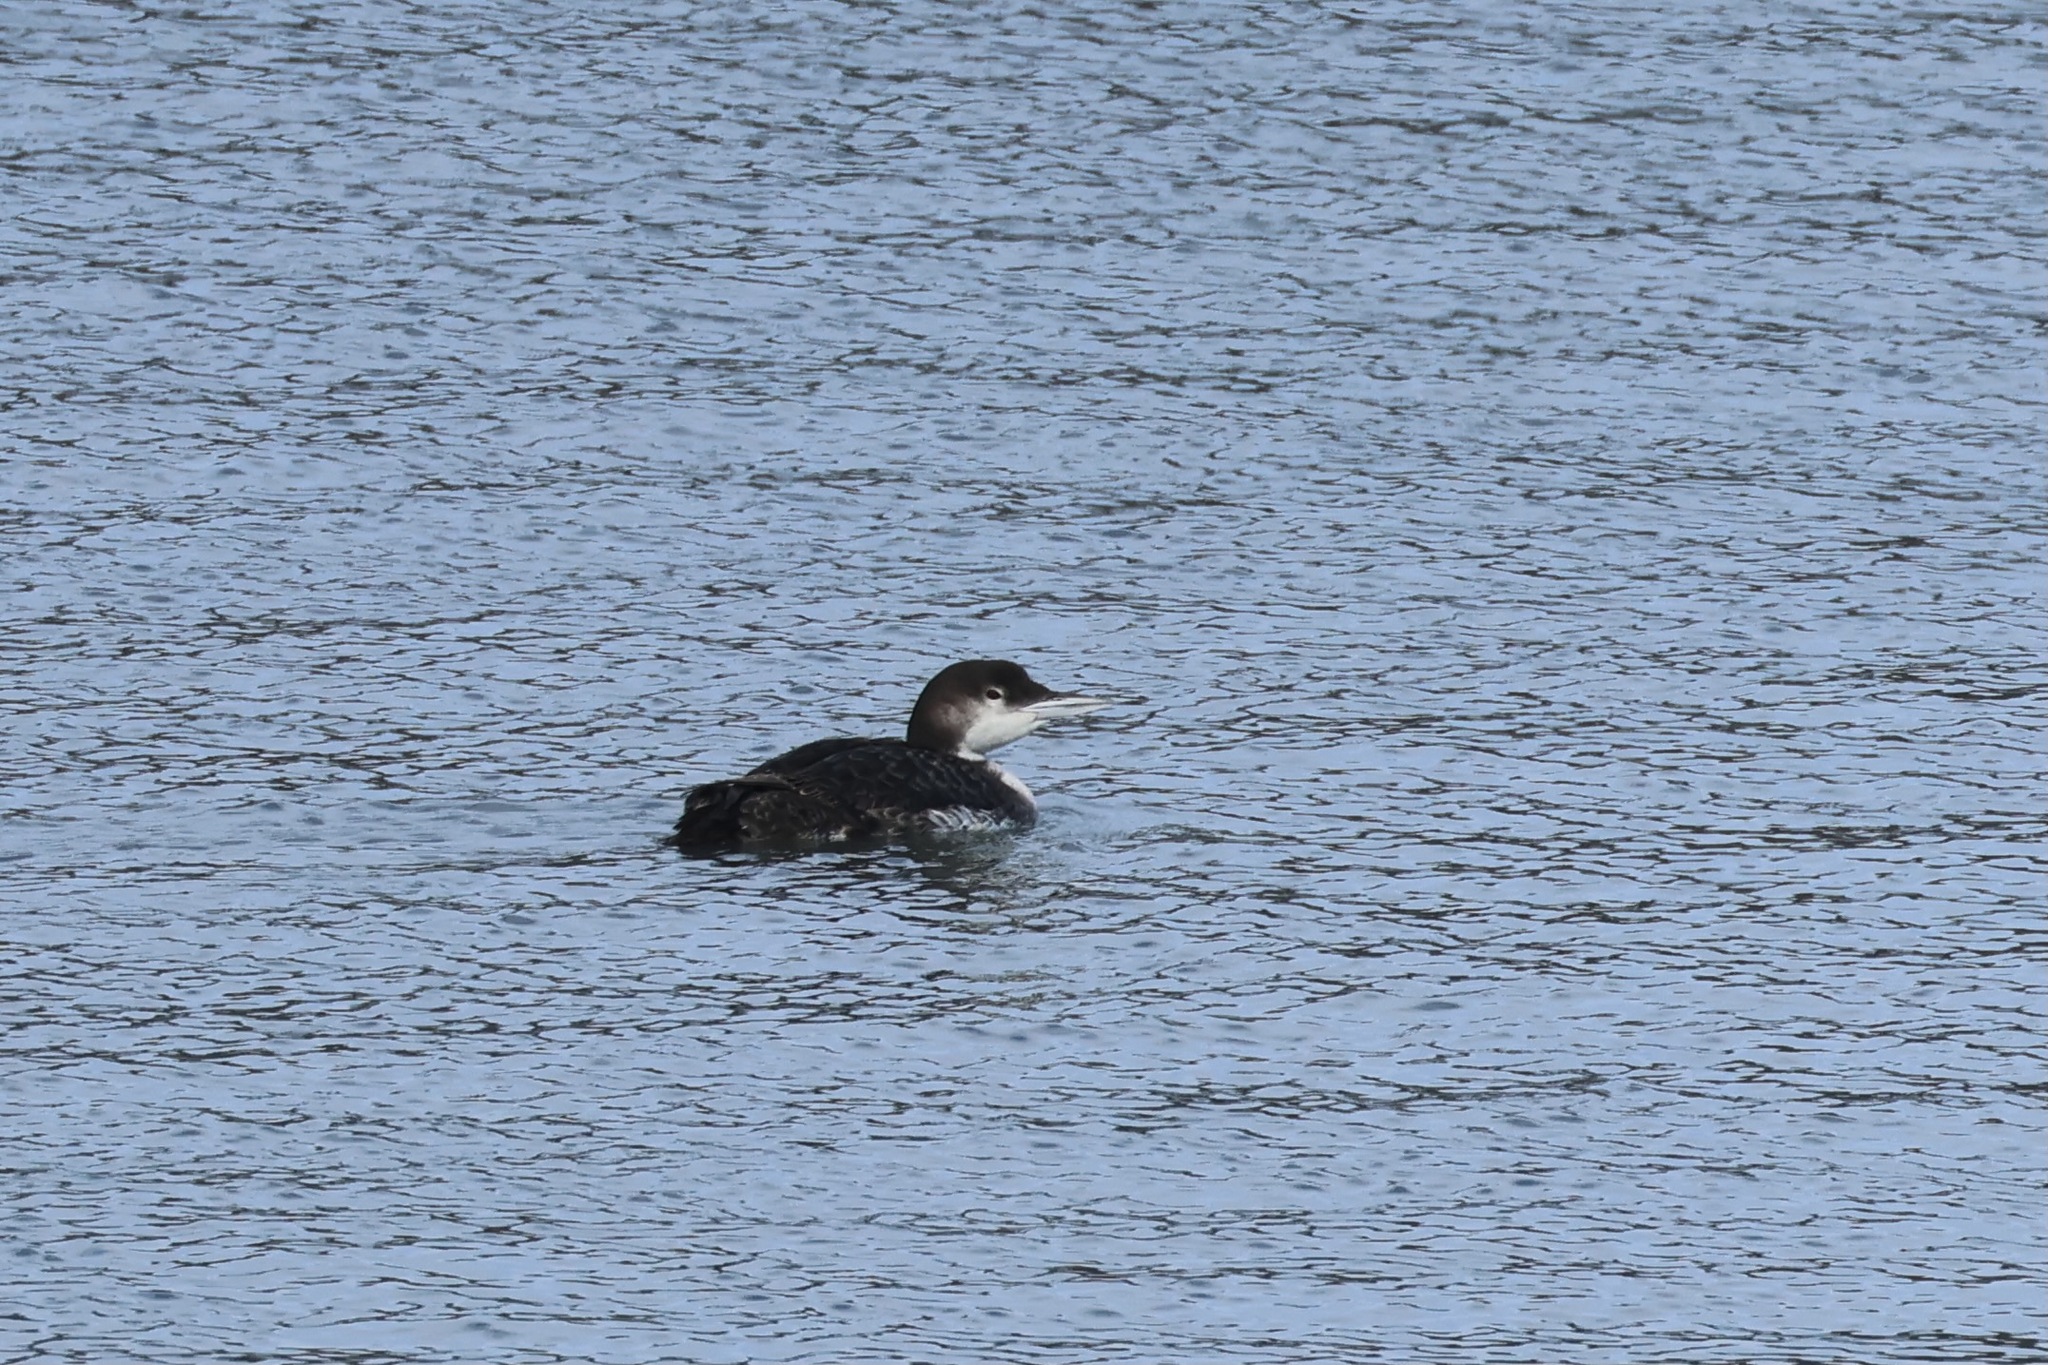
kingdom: Animalia
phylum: Chordata
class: Aves
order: Gaviiformes
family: Gaviidae
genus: Gavia
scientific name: Gavia immer
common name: Common loon
